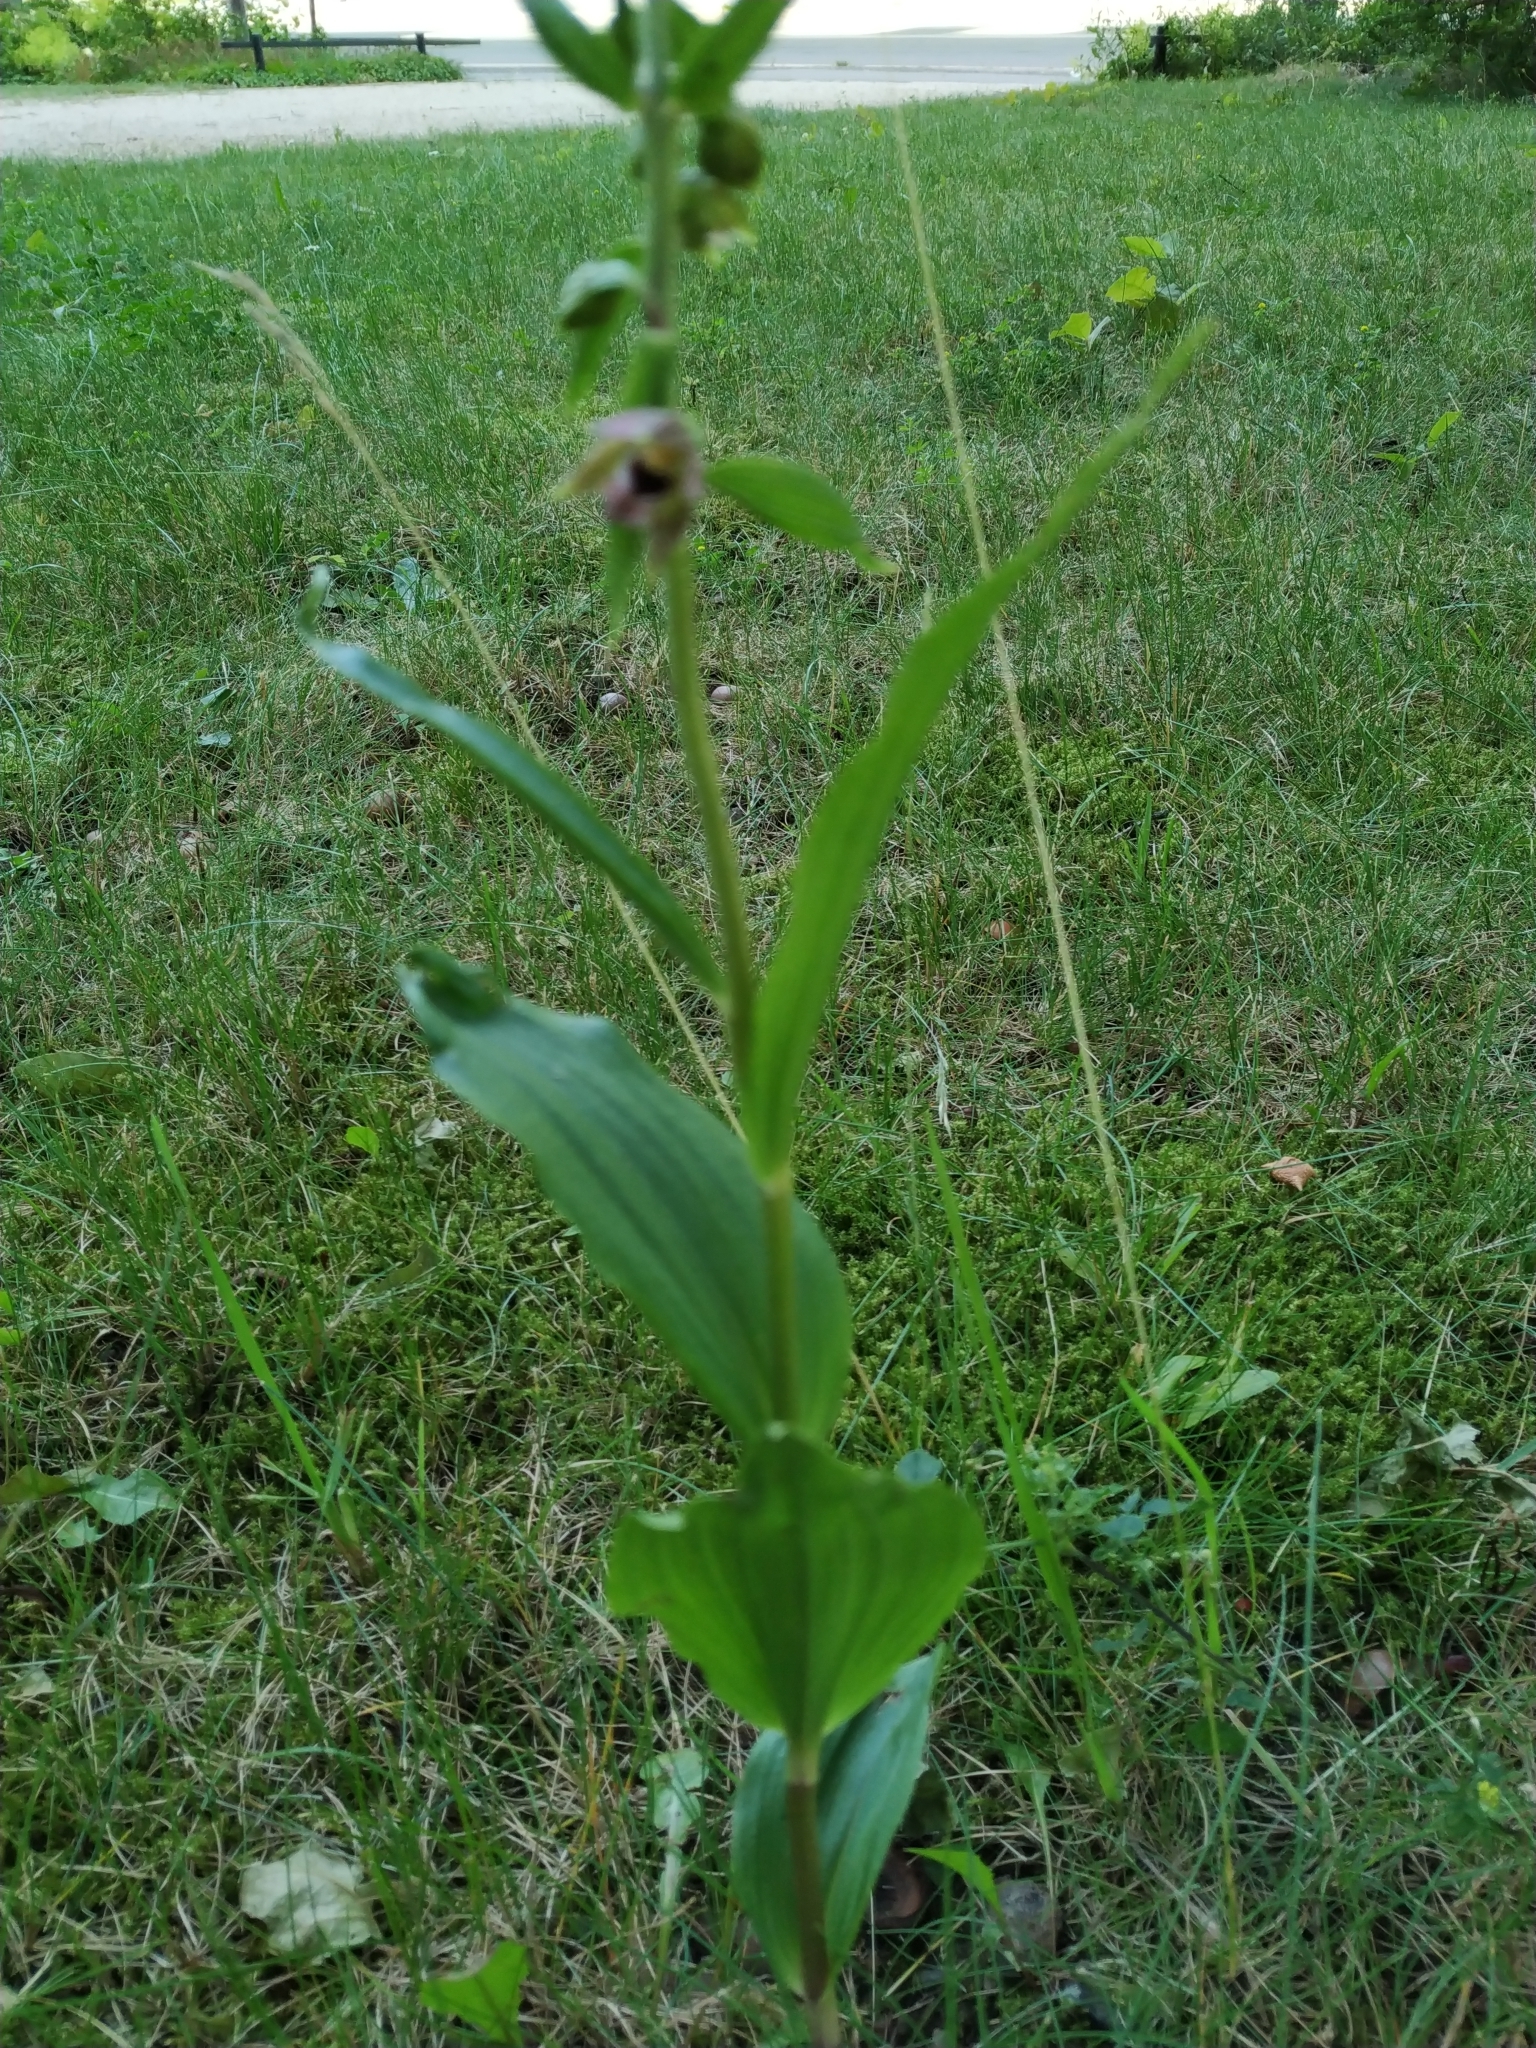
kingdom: Plantae
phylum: Tracheophyta
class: Liliopsida
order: Asparagales
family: Orchidaceae
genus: Epipactis
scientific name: Epipactis helleborine
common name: Broad-leaved helleborine
